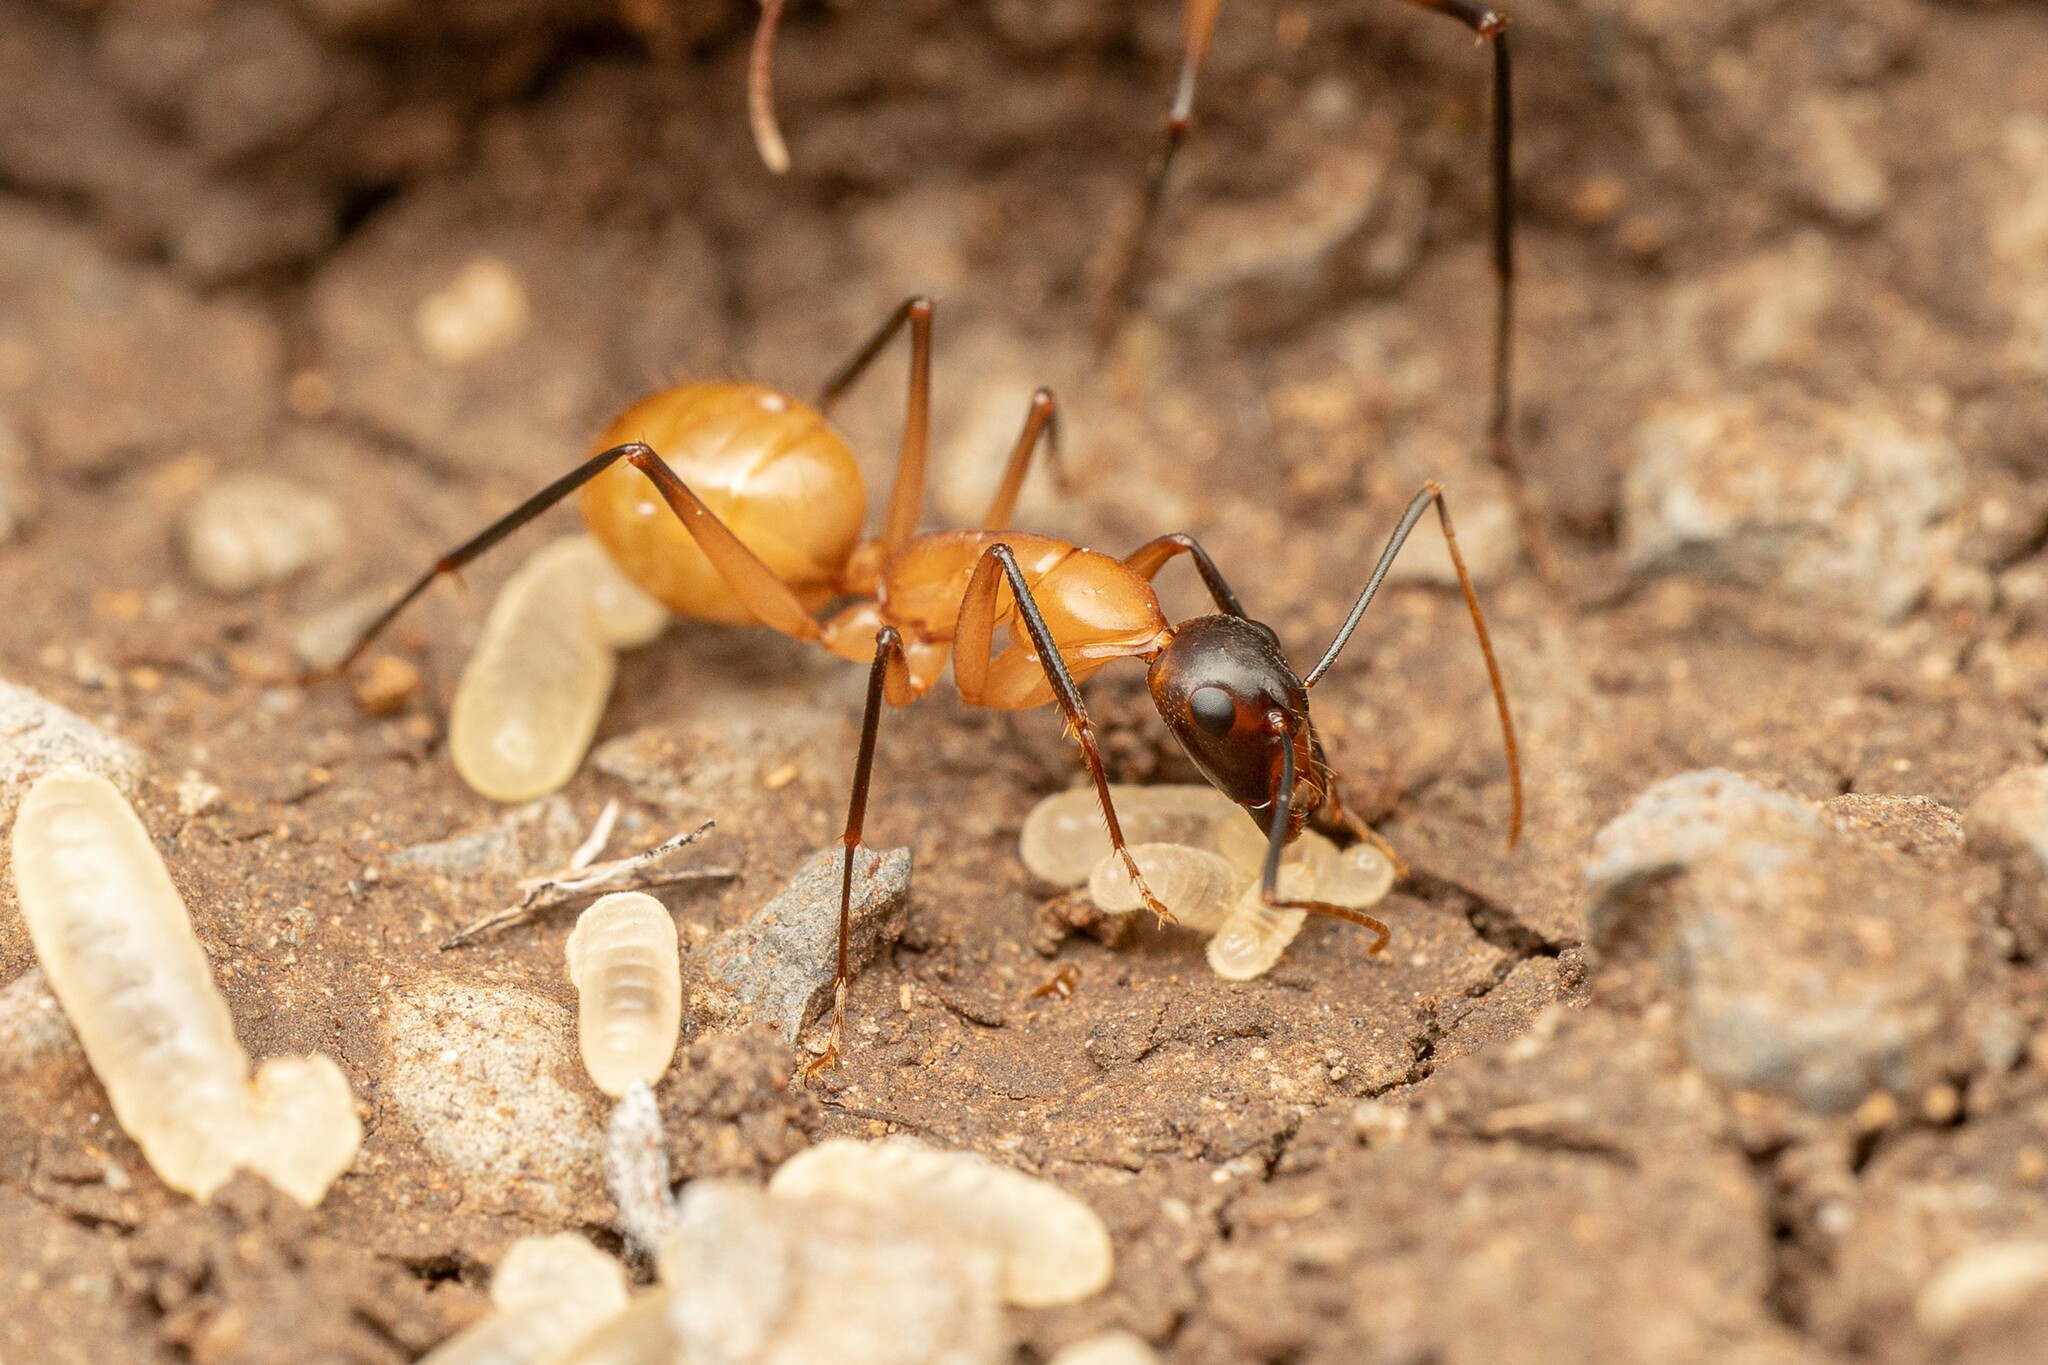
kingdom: Animalia
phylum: Arthropoda
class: Insecta
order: Hymenoptera
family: Formicidae
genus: Camponotus
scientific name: Camponotus ocreatus
